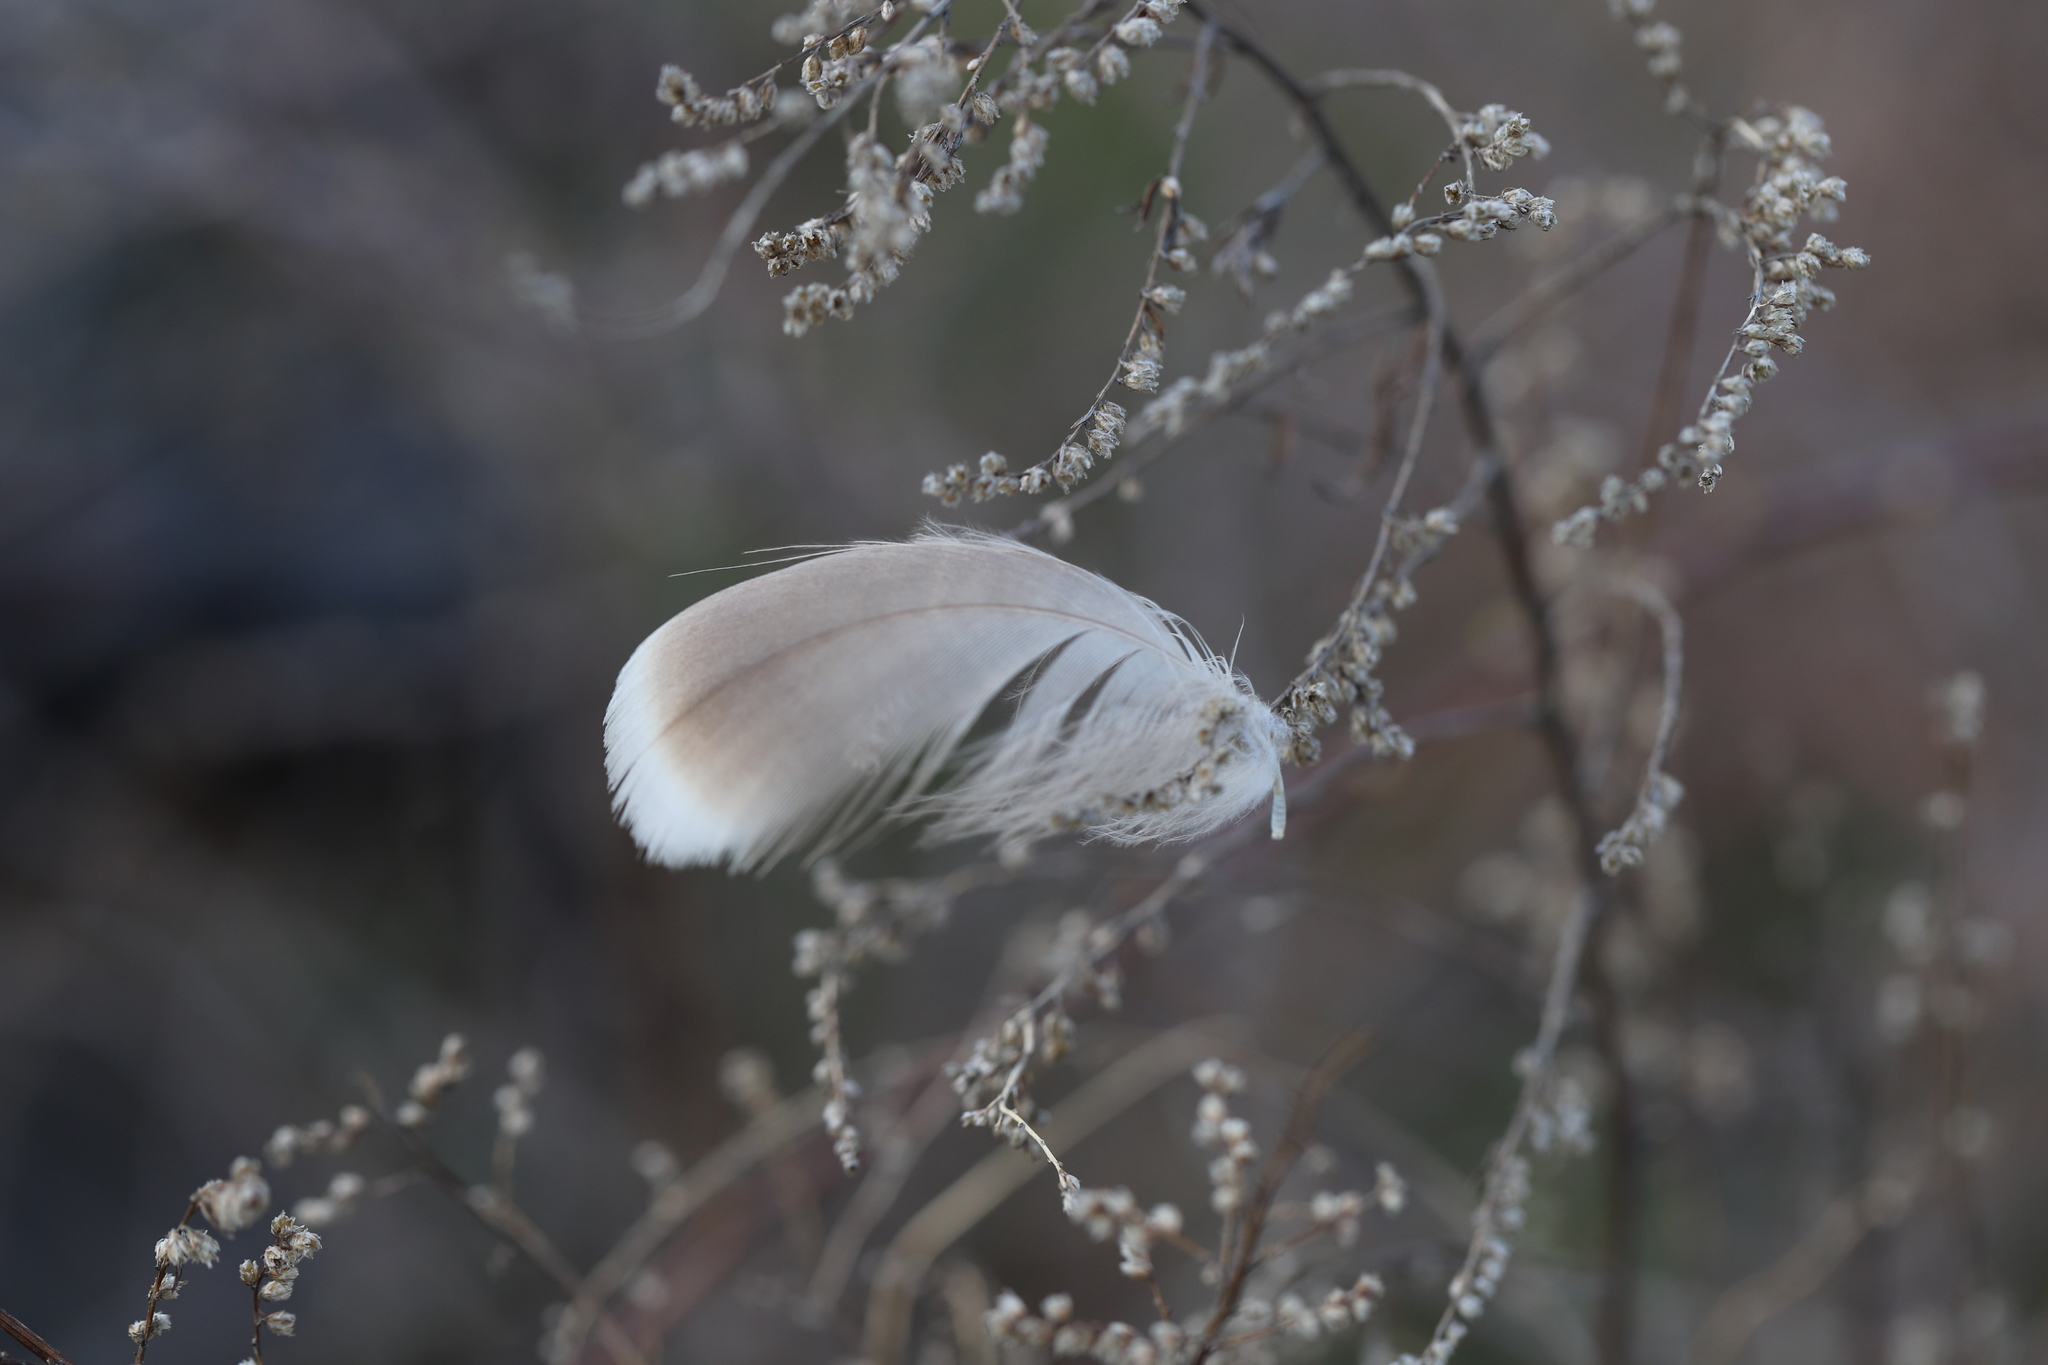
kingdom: Plantae
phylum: Tracheophyta
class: Magnoliopsida
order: Asterales
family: Asteraceae
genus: Artemisia
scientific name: Artemisia vulgaris
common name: Mugwort
